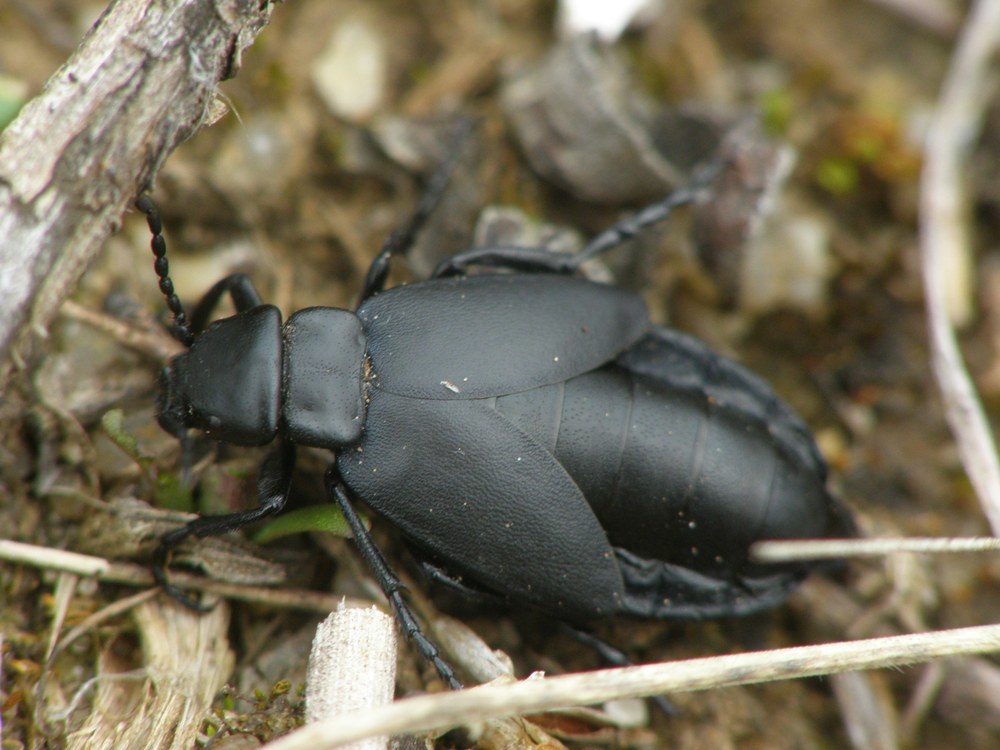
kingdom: Animalia
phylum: Arthropoda
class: Insecta
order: Coleoptera
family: Meloidae
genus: Meloe
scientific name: Meloe uralensis
